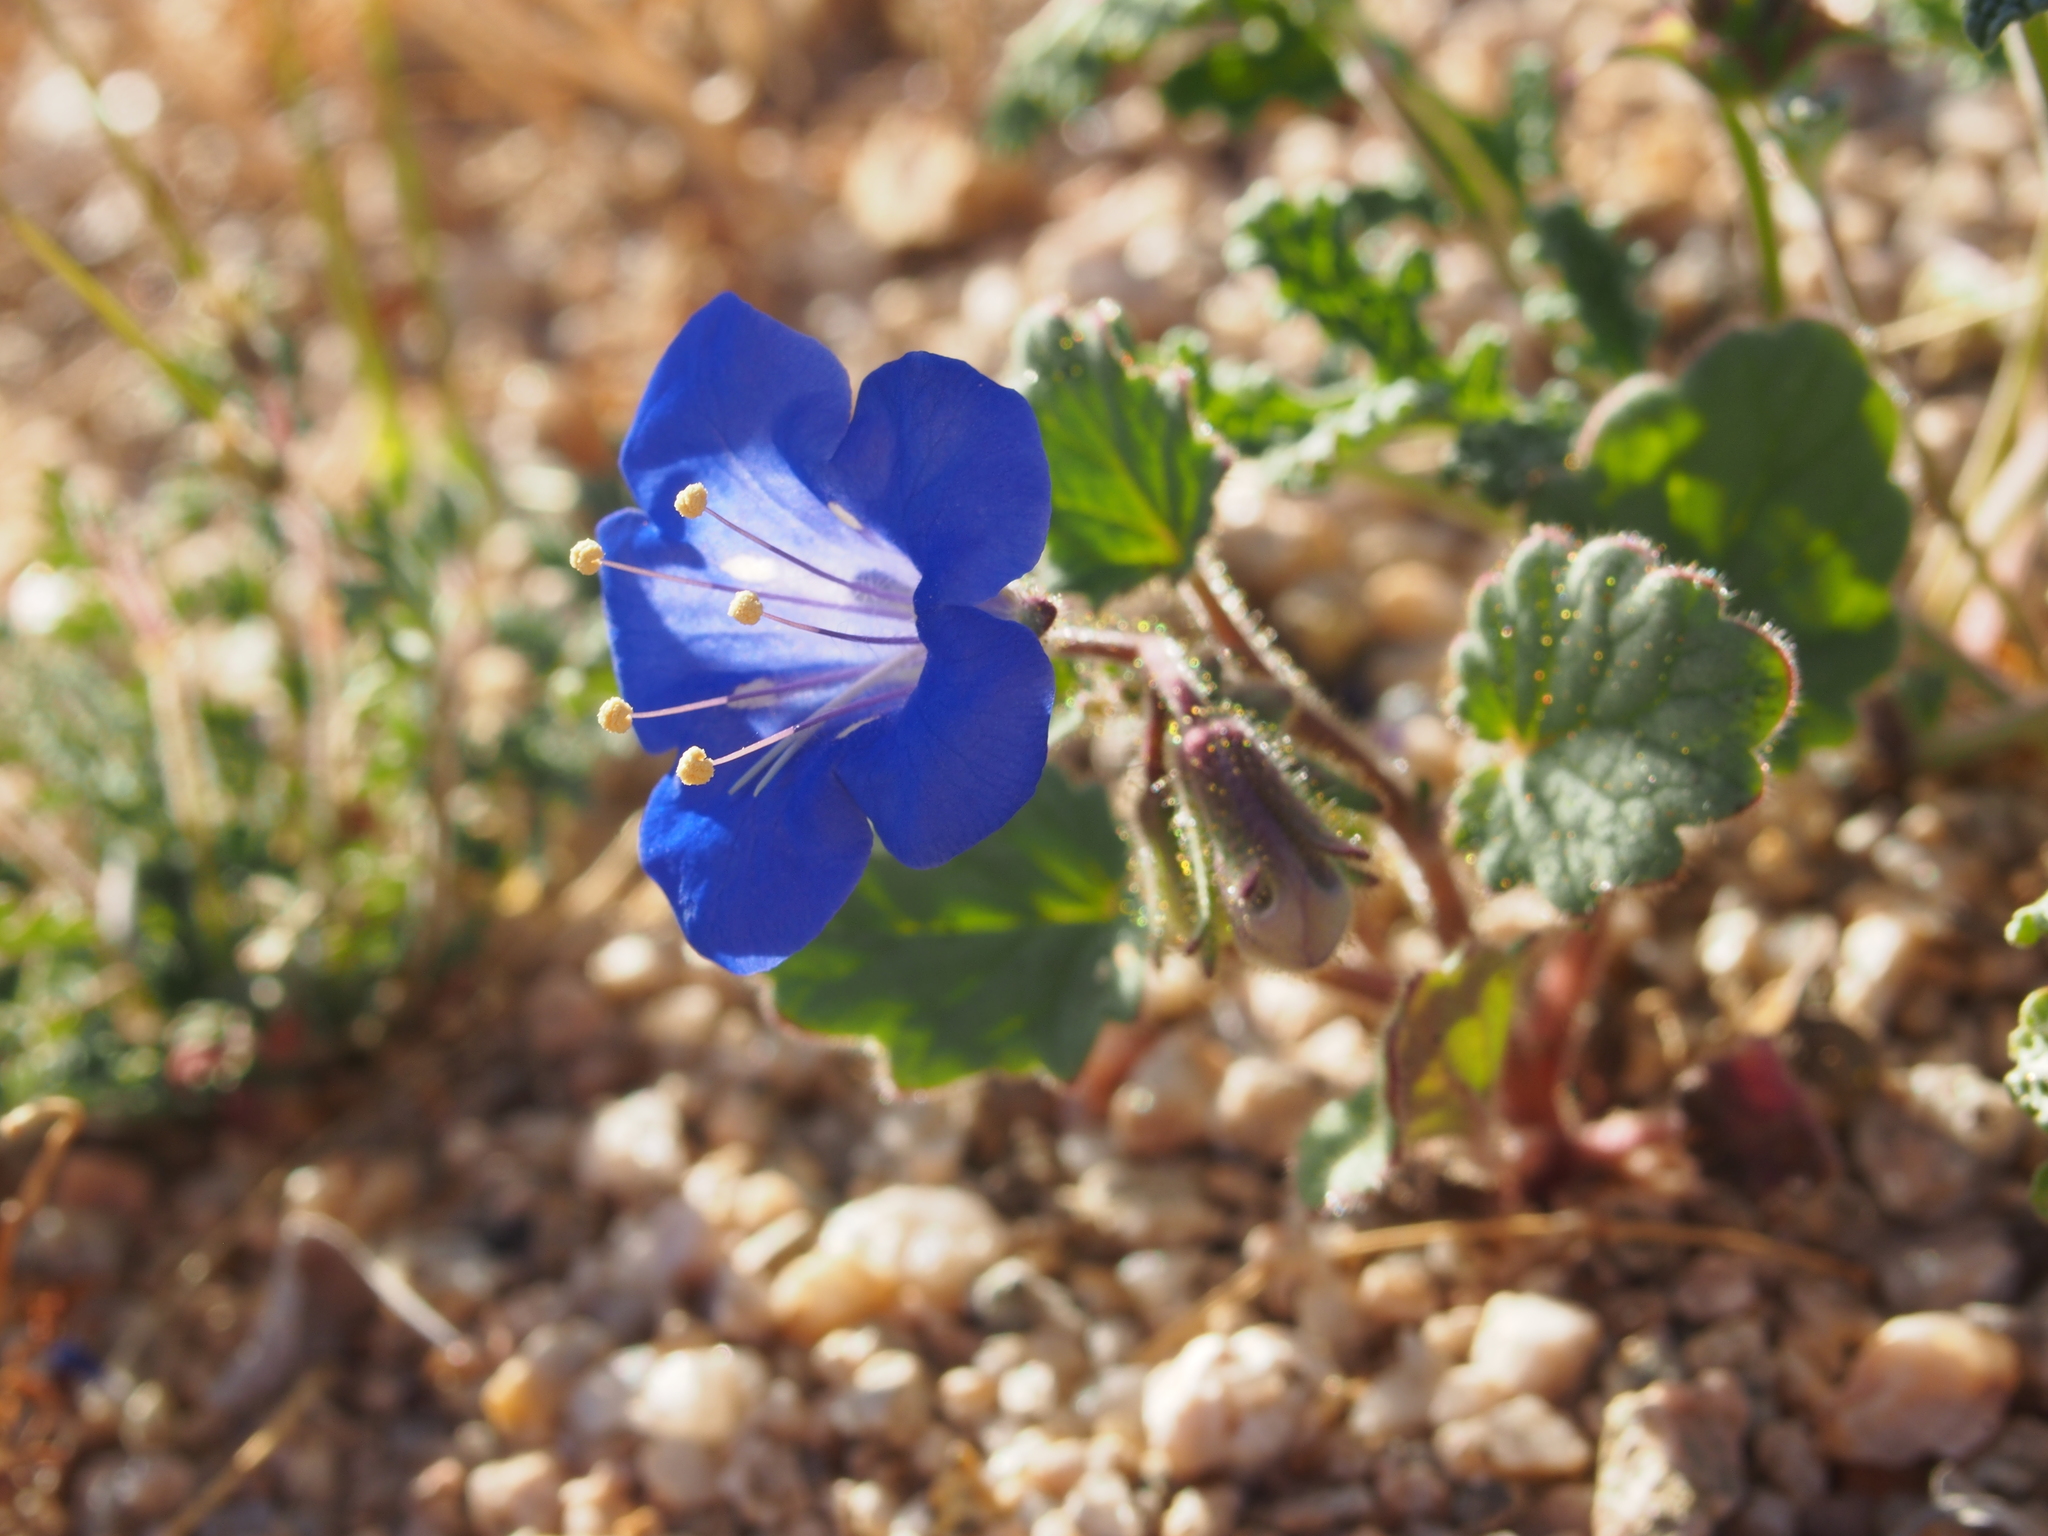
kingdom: Plantae
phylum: Tracheophyta
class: Magnoliopsida
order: Boraginales
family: Hydrophyllaceae
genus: Phacelia
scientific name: Phacelia campanularia
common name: California bluebell
